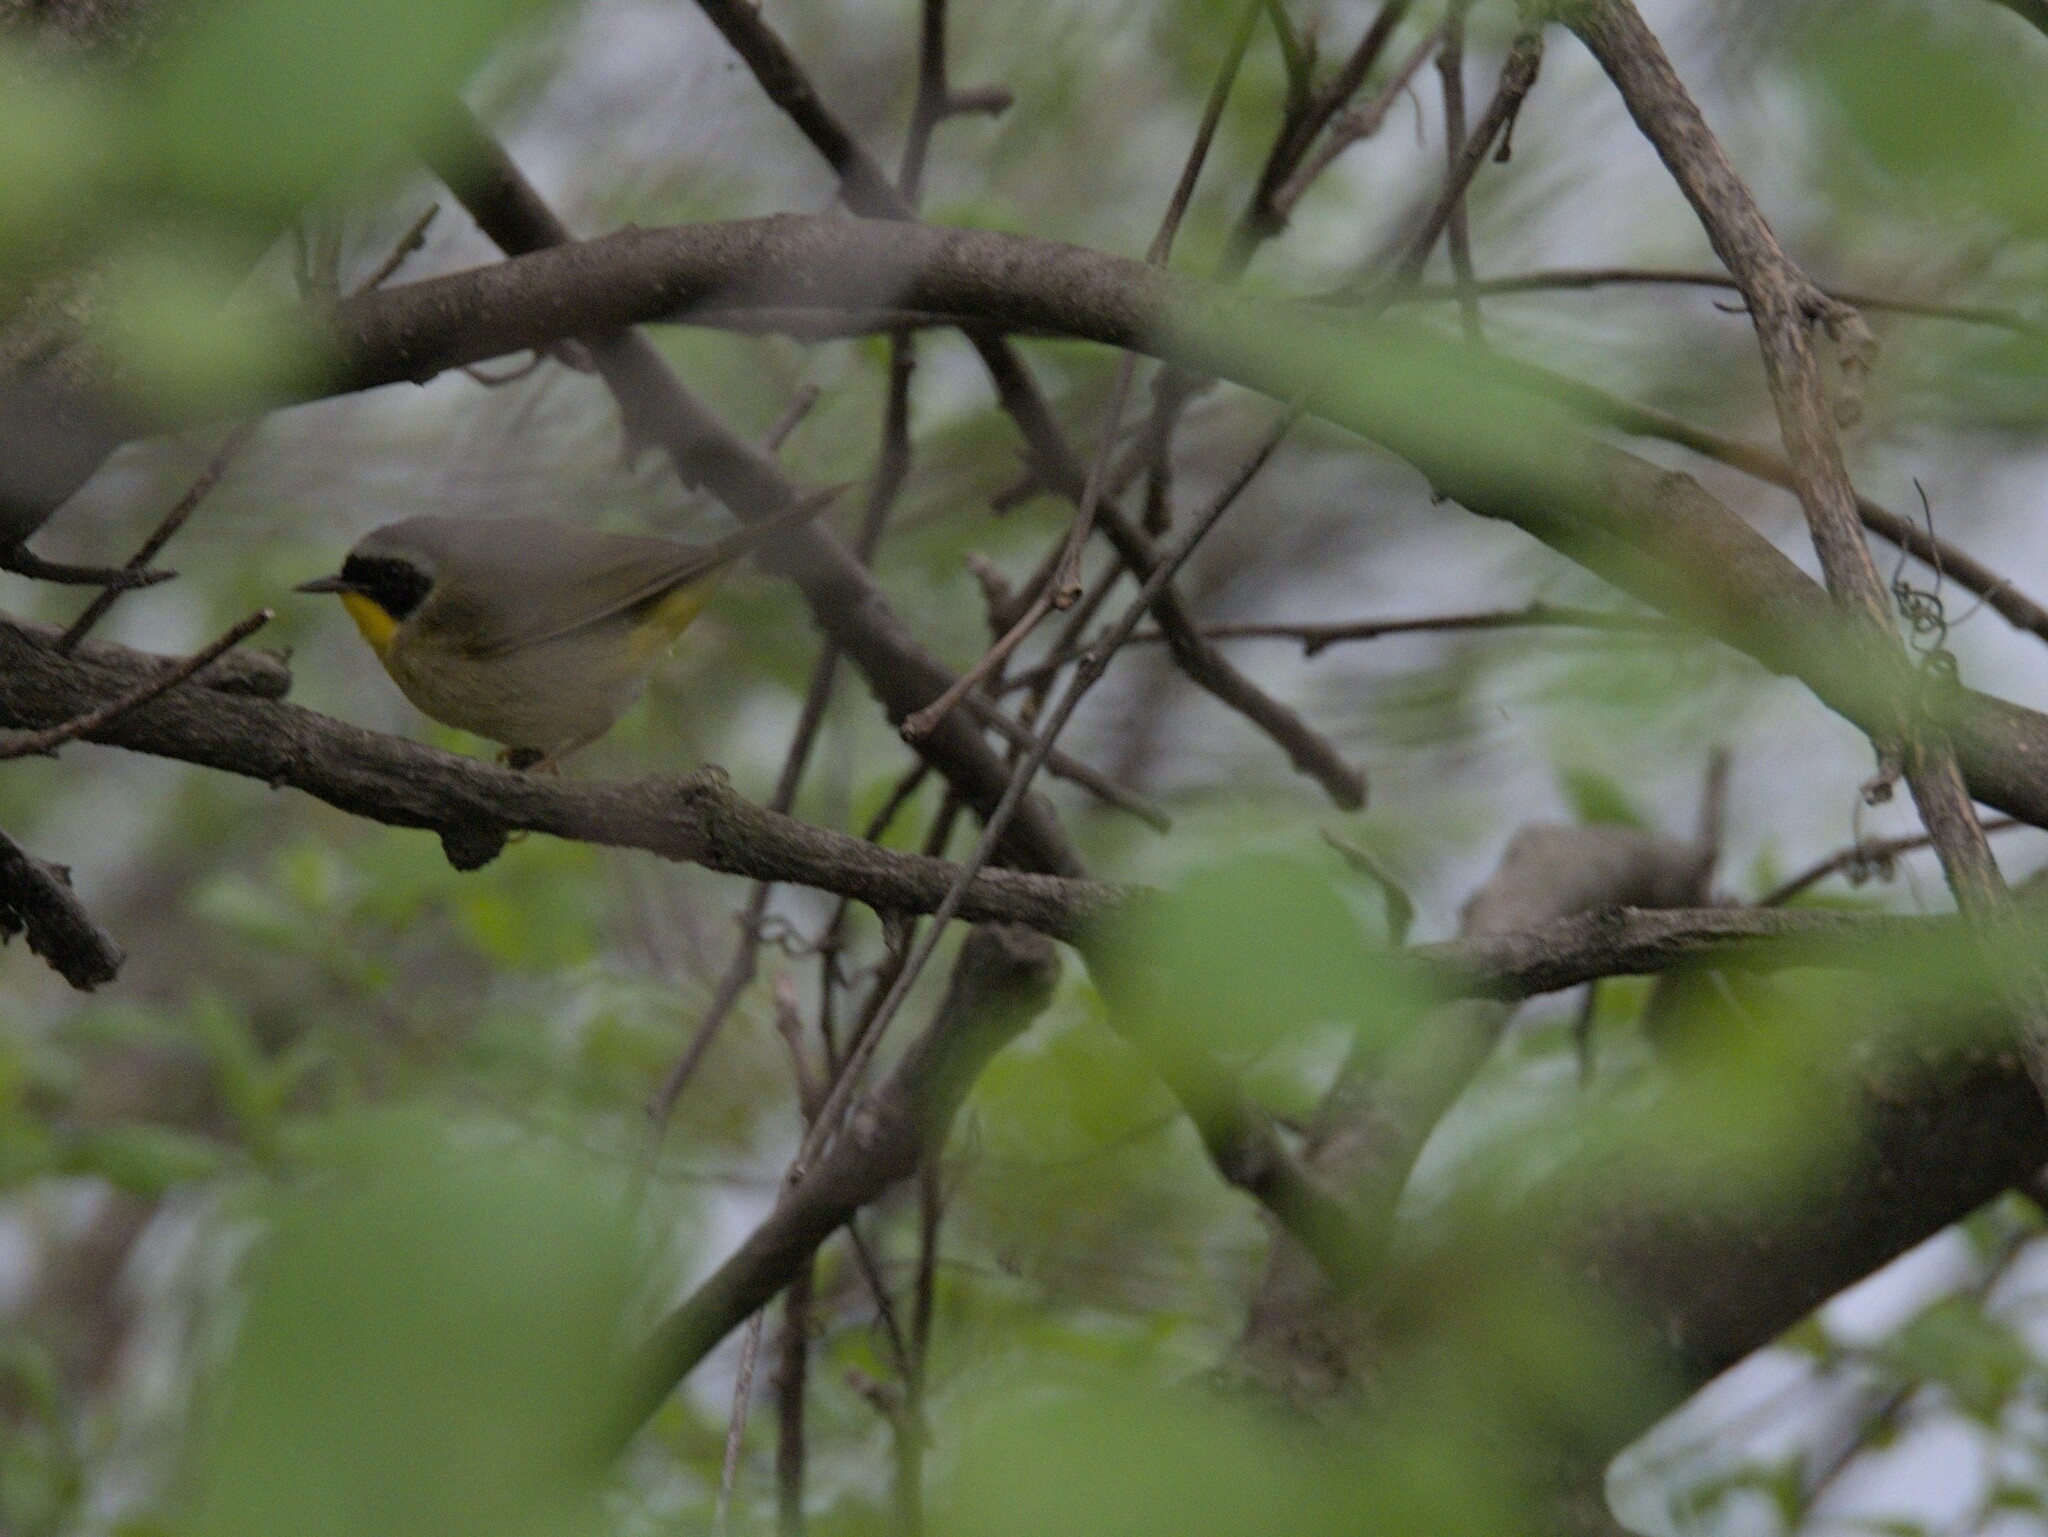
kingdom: Animalia
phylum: Chordata
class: Aves
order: Passeriformes
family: Parulidae
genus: Geothlypis
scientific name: Geothlypis trichas
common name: Common yellowthroat
